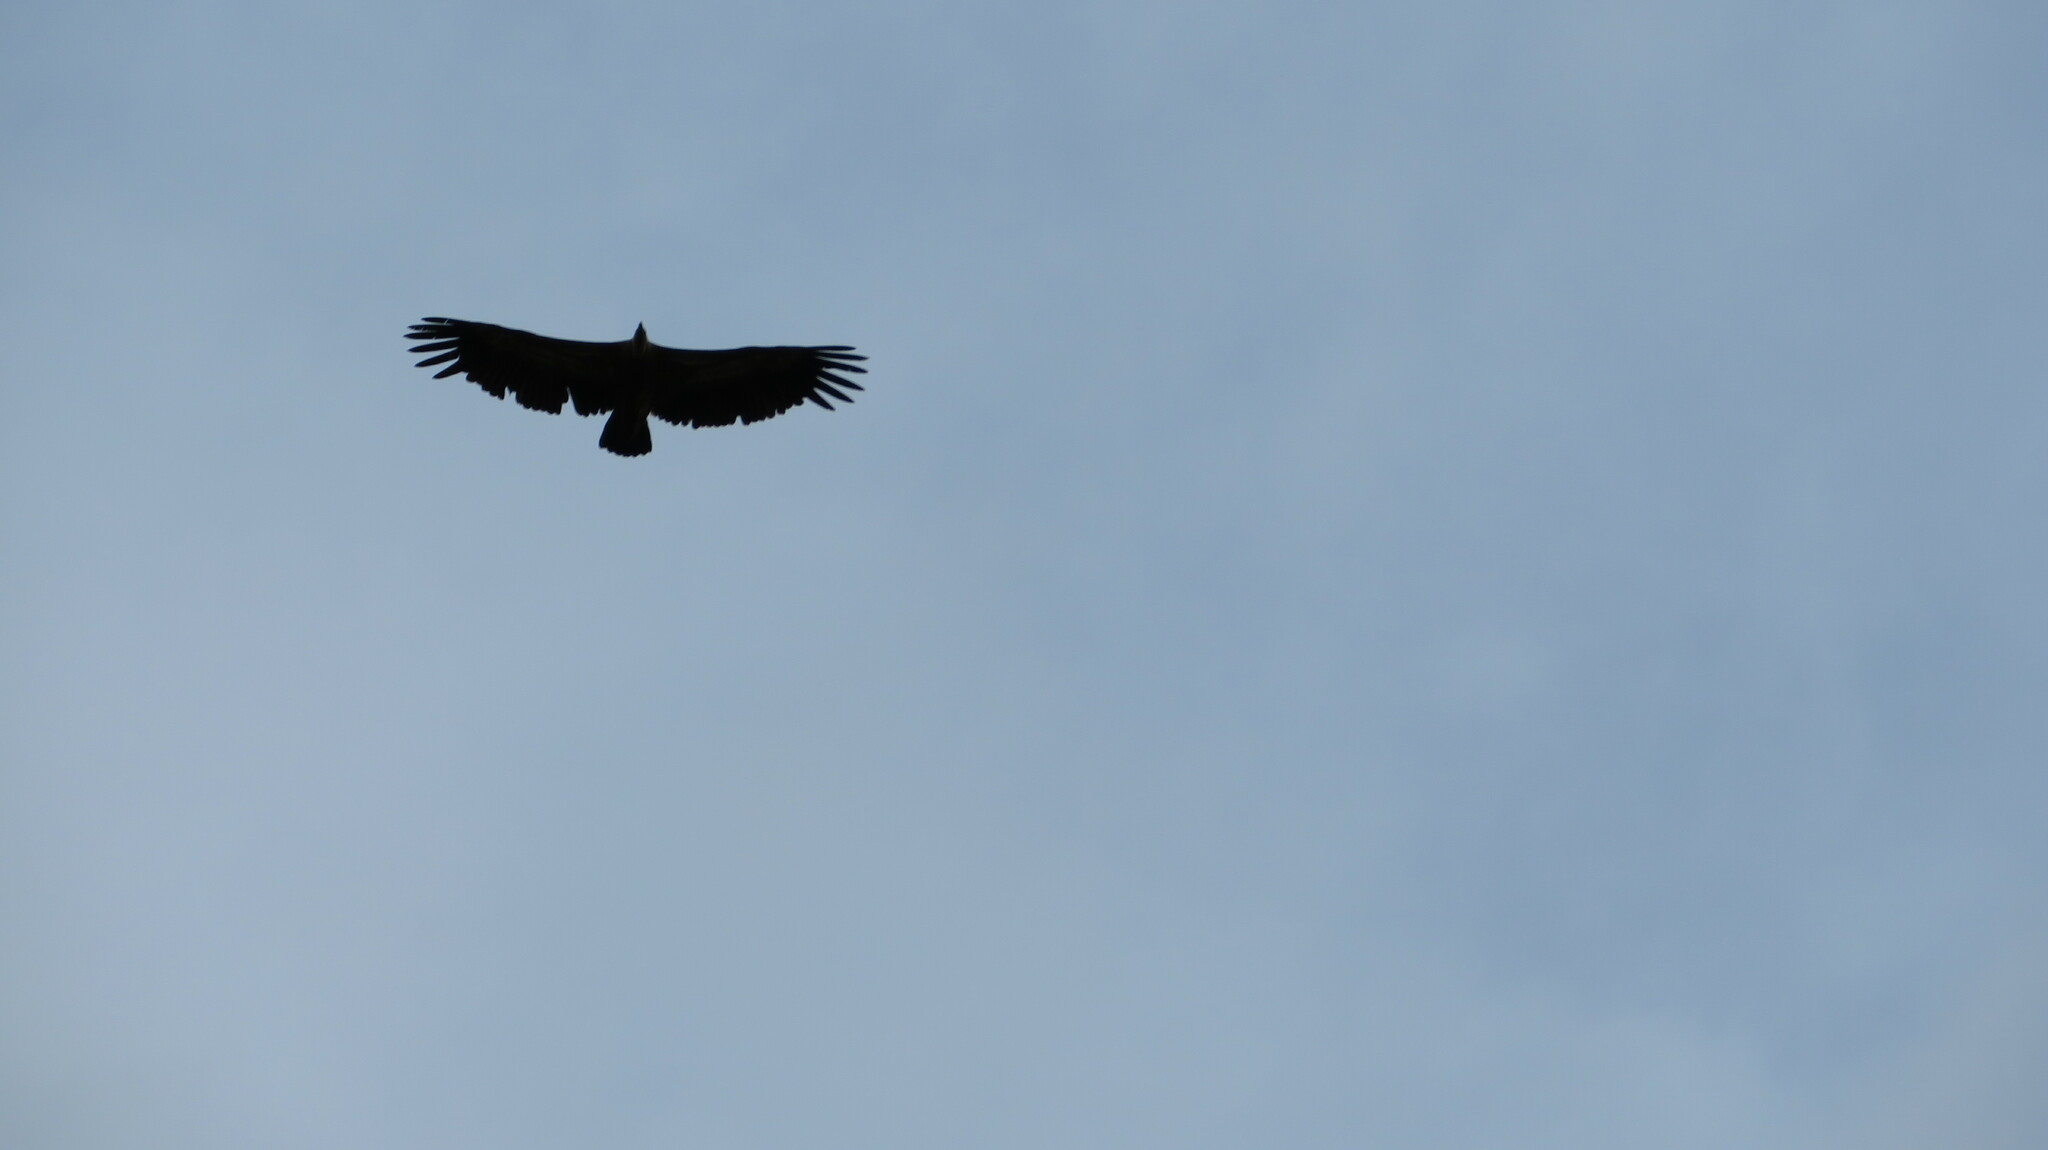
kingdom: Animalia
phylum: Chordata
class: Aves
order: Accipitriformes
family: Accipitridae
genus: Gyps
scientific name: Gyps fulvus
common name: Griffon vulture
